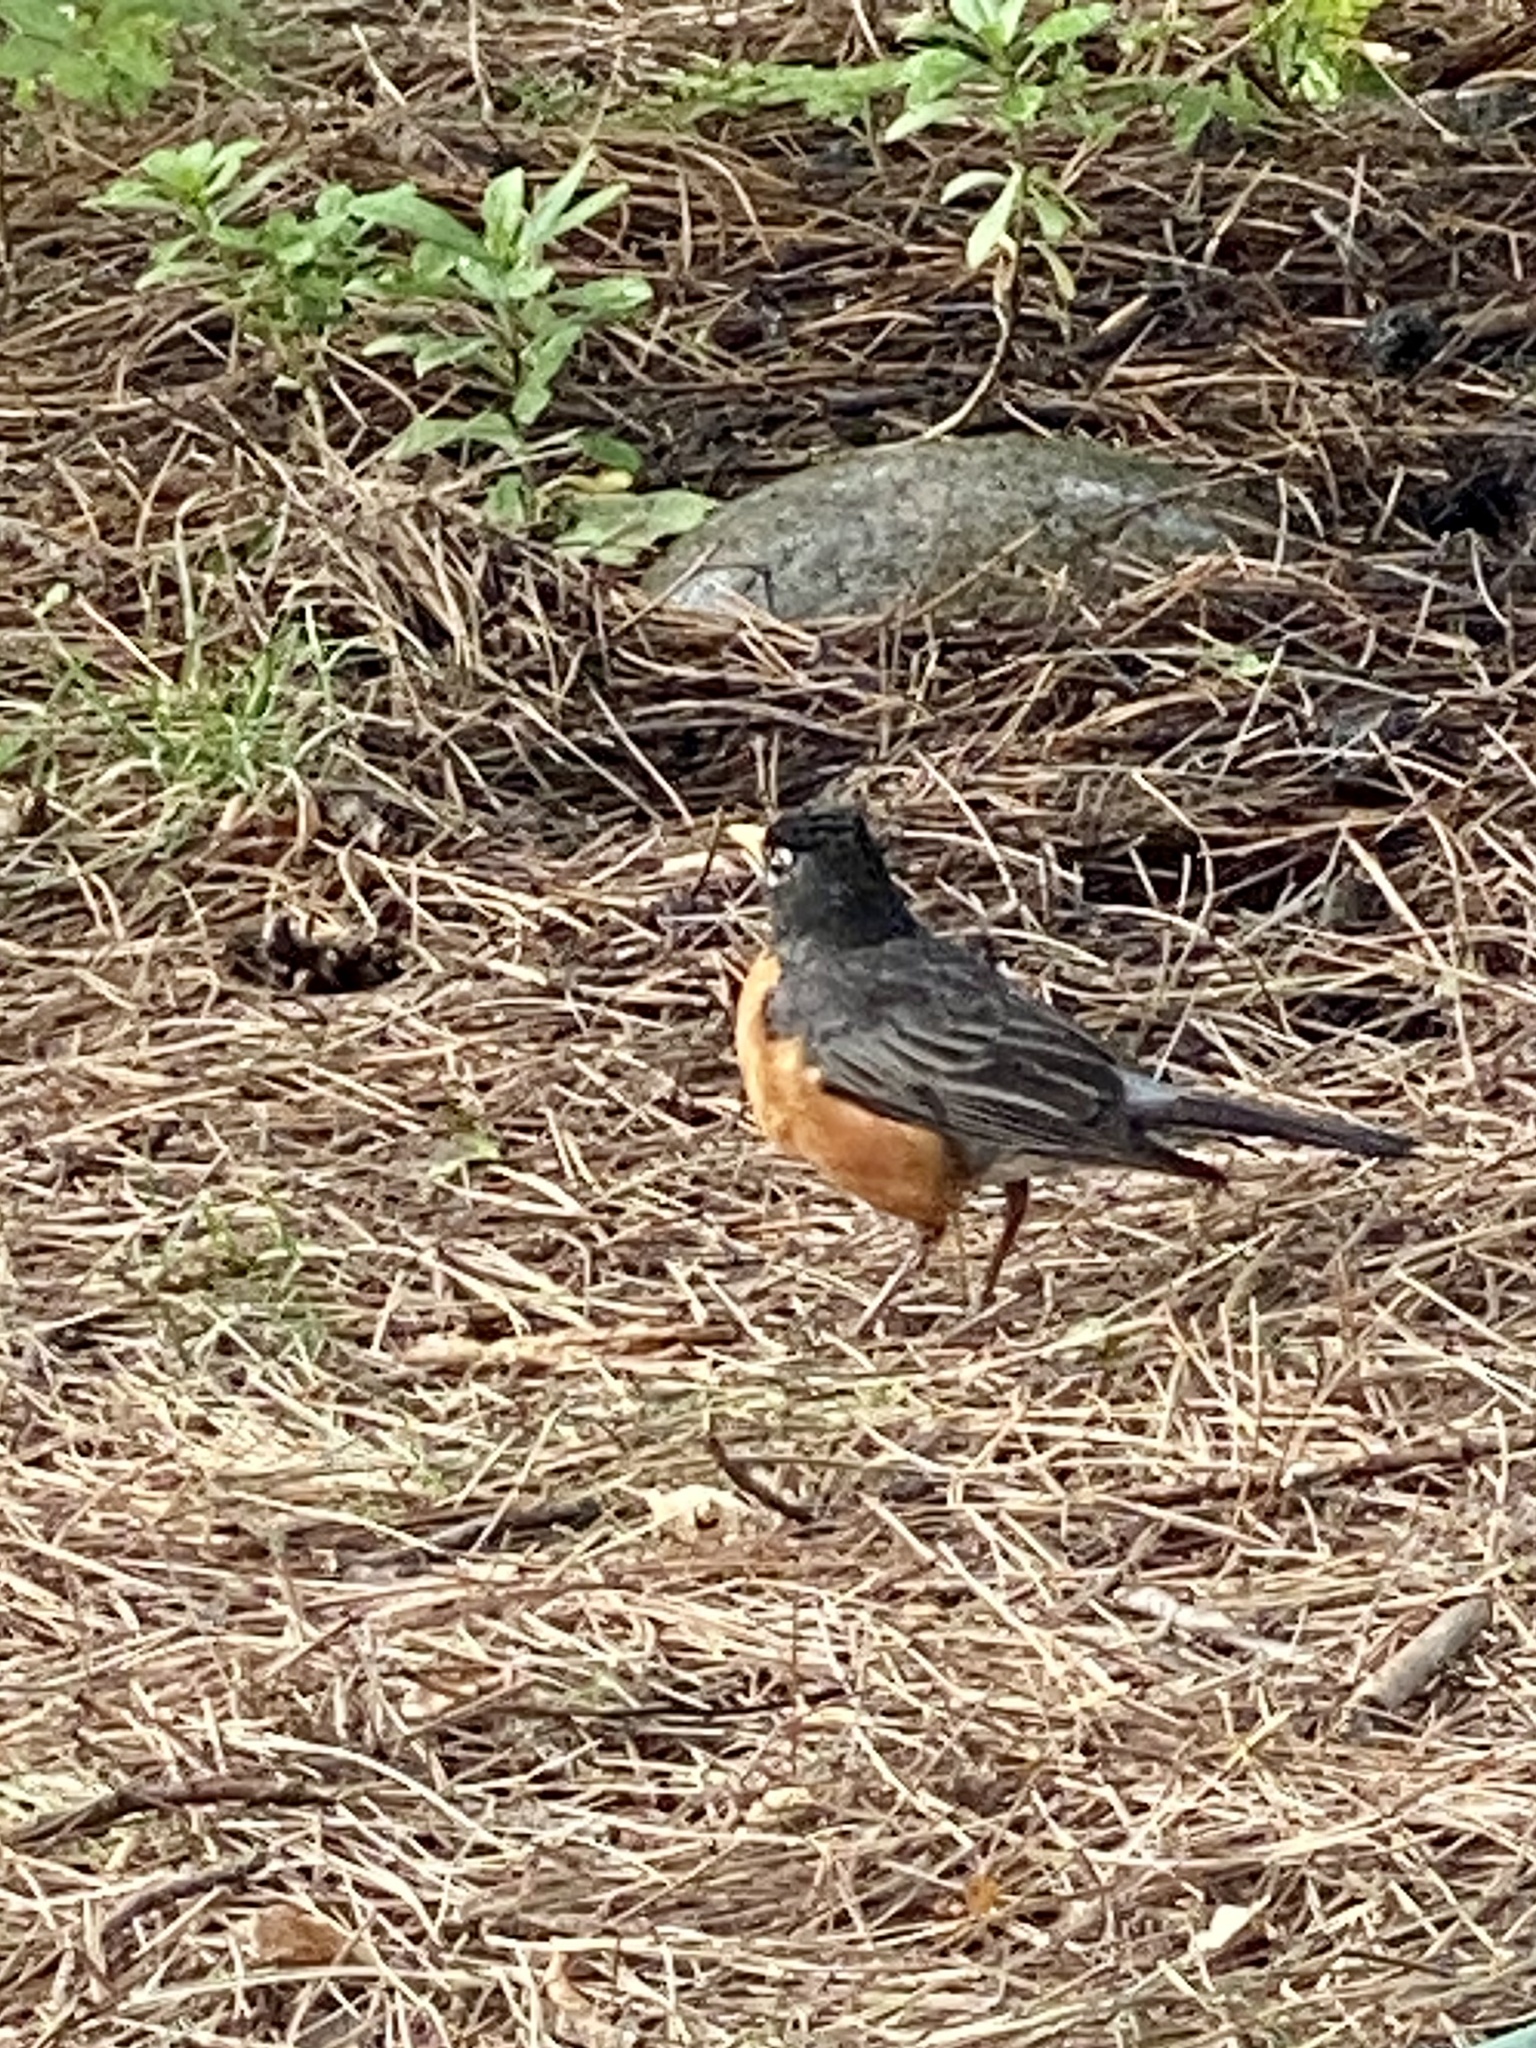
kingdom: Animalia
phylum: Chordata
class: Aves
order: Passeriformes
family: Turdidae
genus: Turdus
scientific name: Turdus migratorius
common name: American robin
